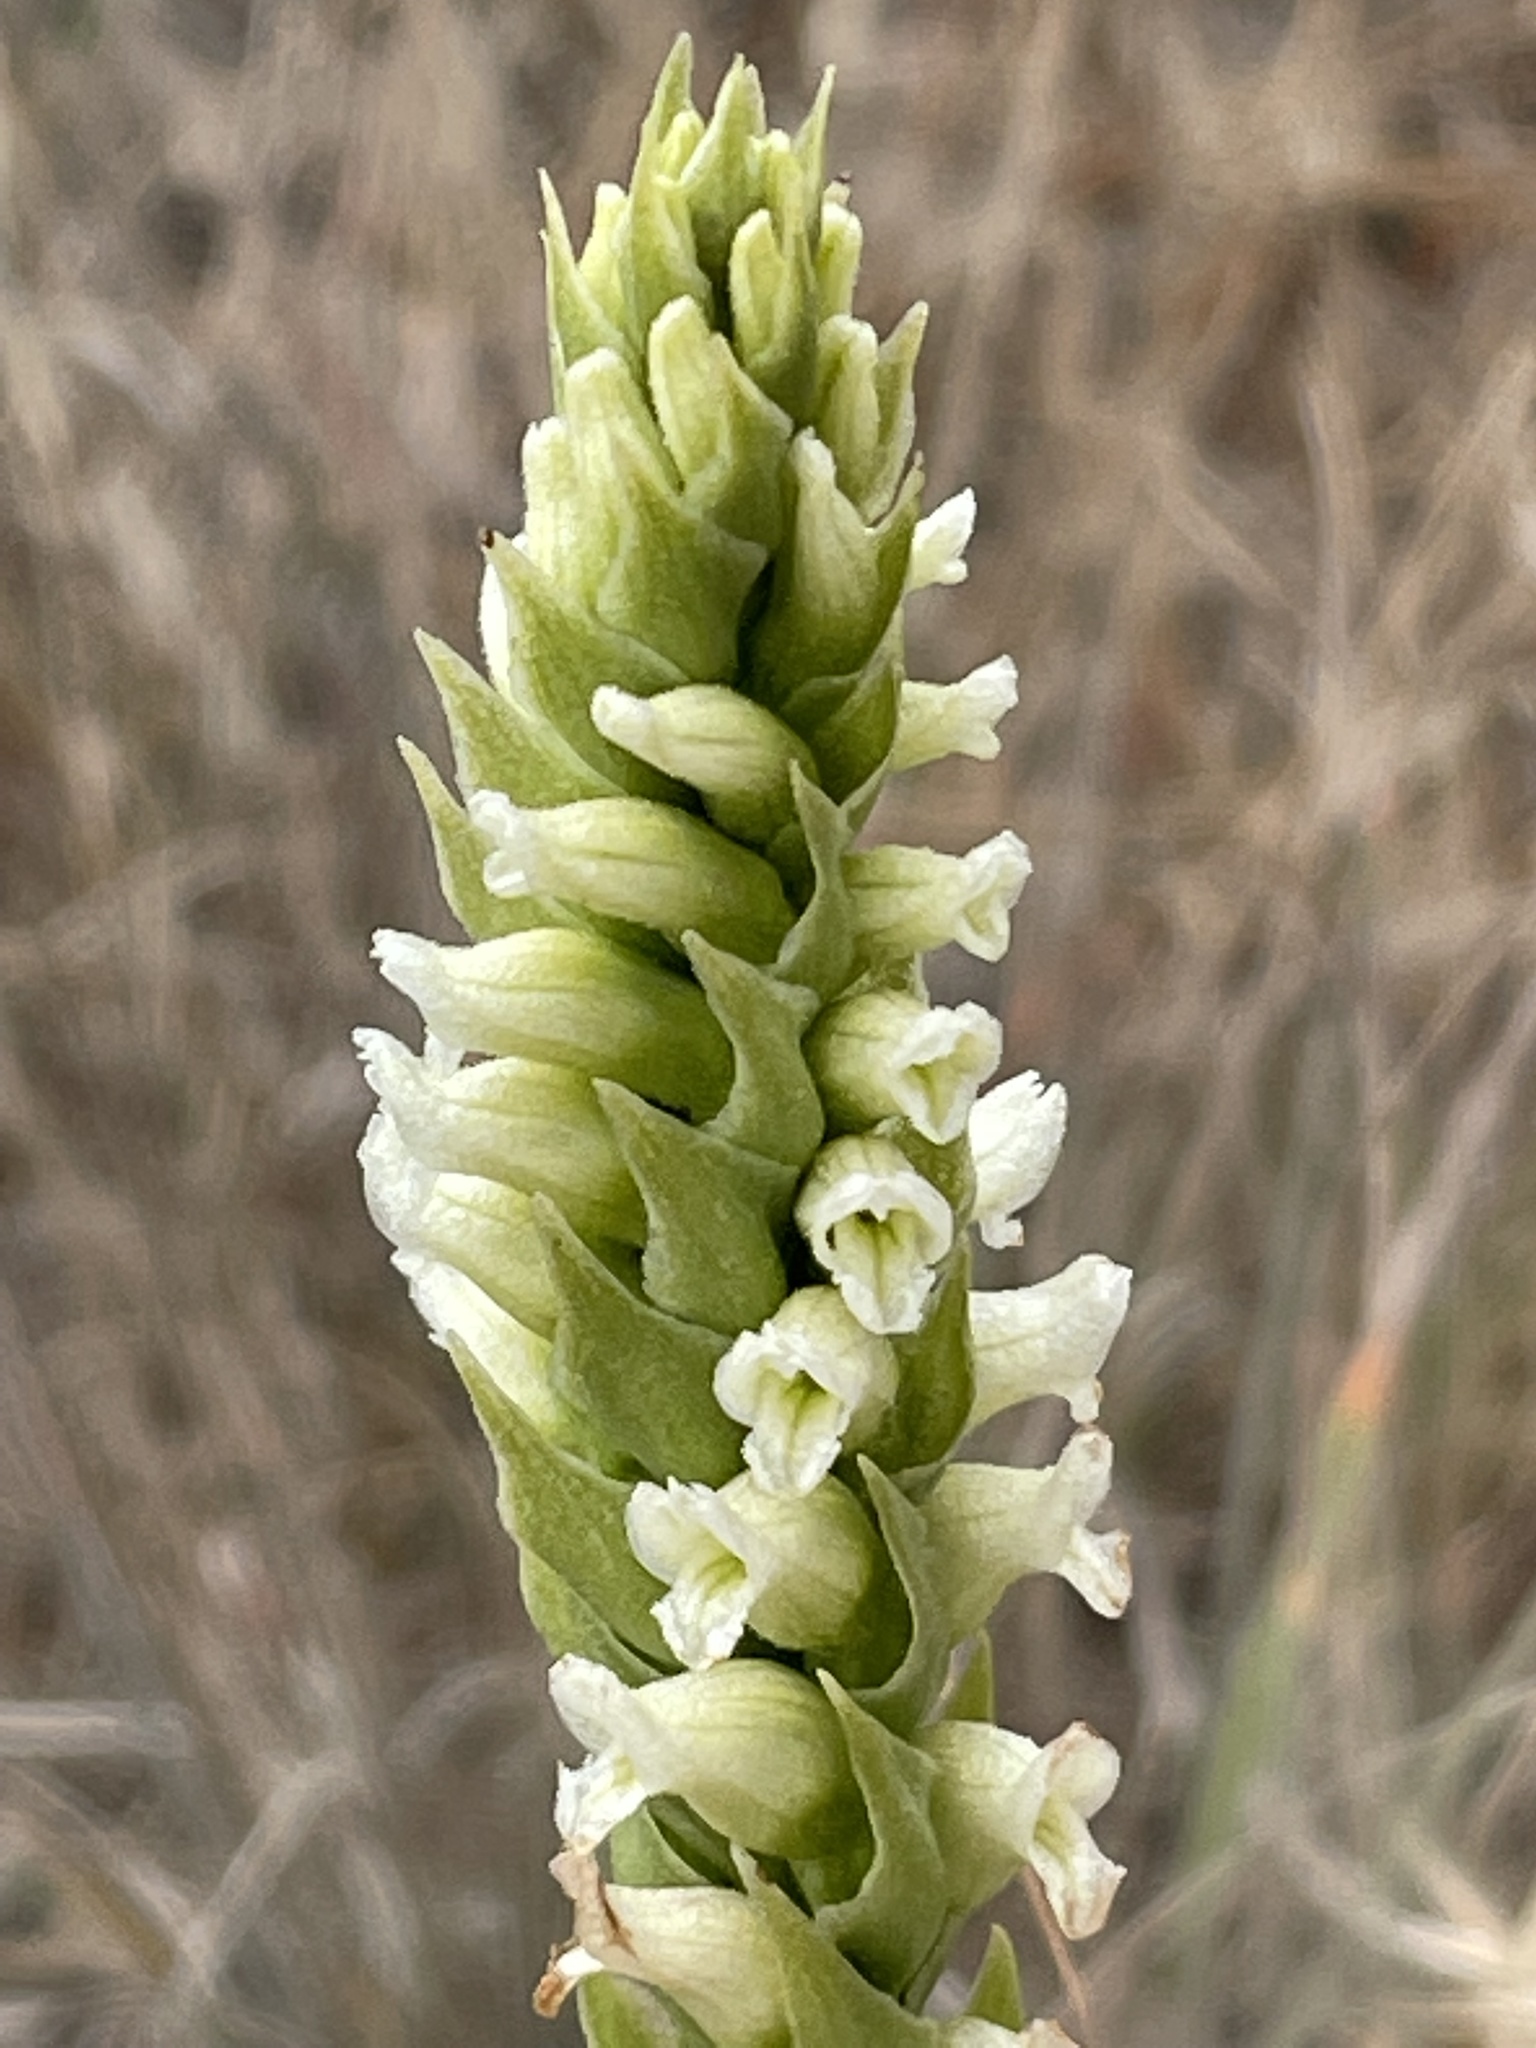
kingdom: Plantae
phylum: Tracheophyta
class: Liliopsida
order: Asparagales
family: Orchidaceae
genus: Spiranthes
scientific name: Spiranthes romanzoffiana
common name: Irish lady's-tresses
